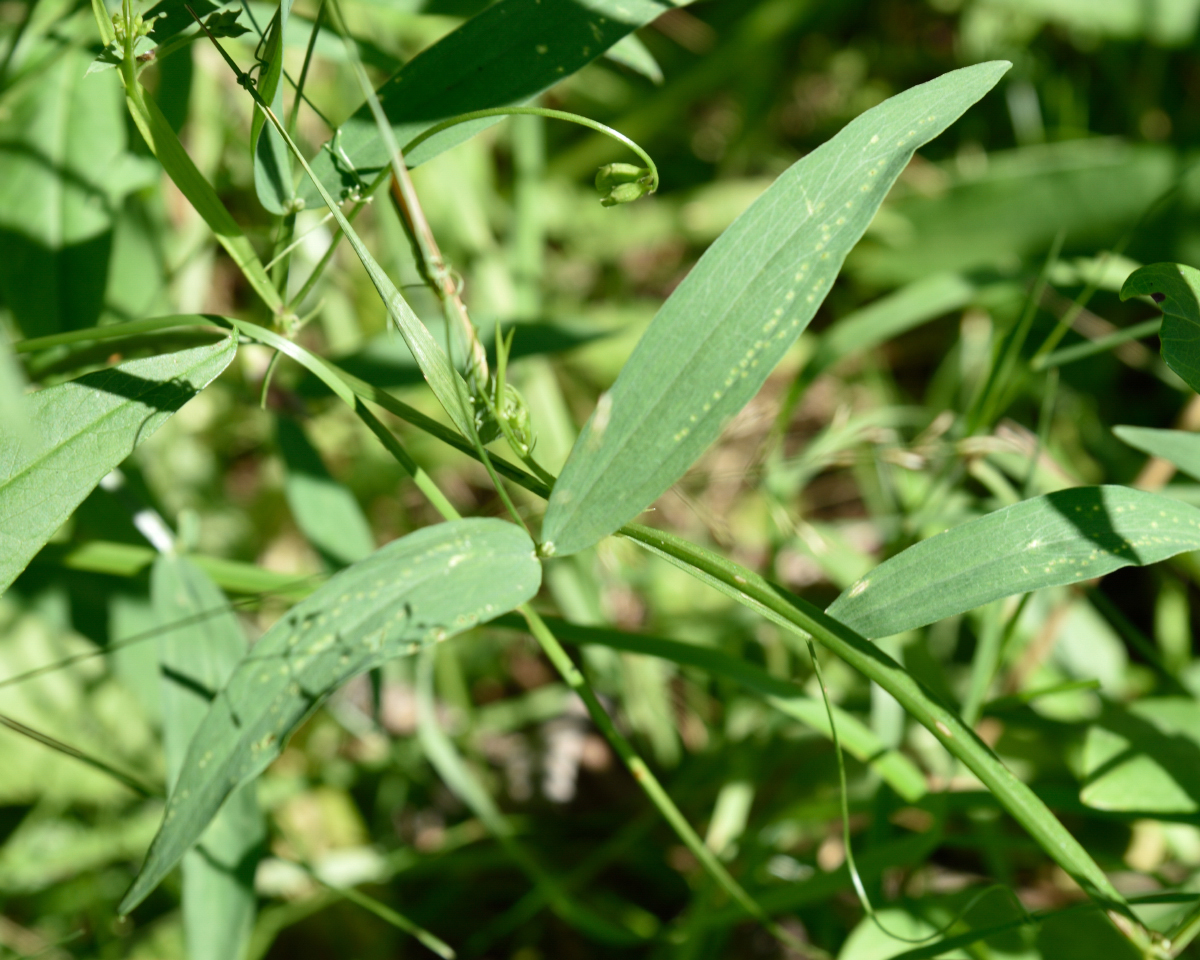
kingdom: Plantae
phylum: Tracheophyta
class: Magnoliopsida
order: Fabales
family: Fabaceae
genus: Lathyrus
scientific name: Lathyrus sylvestris
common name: Flat pea
